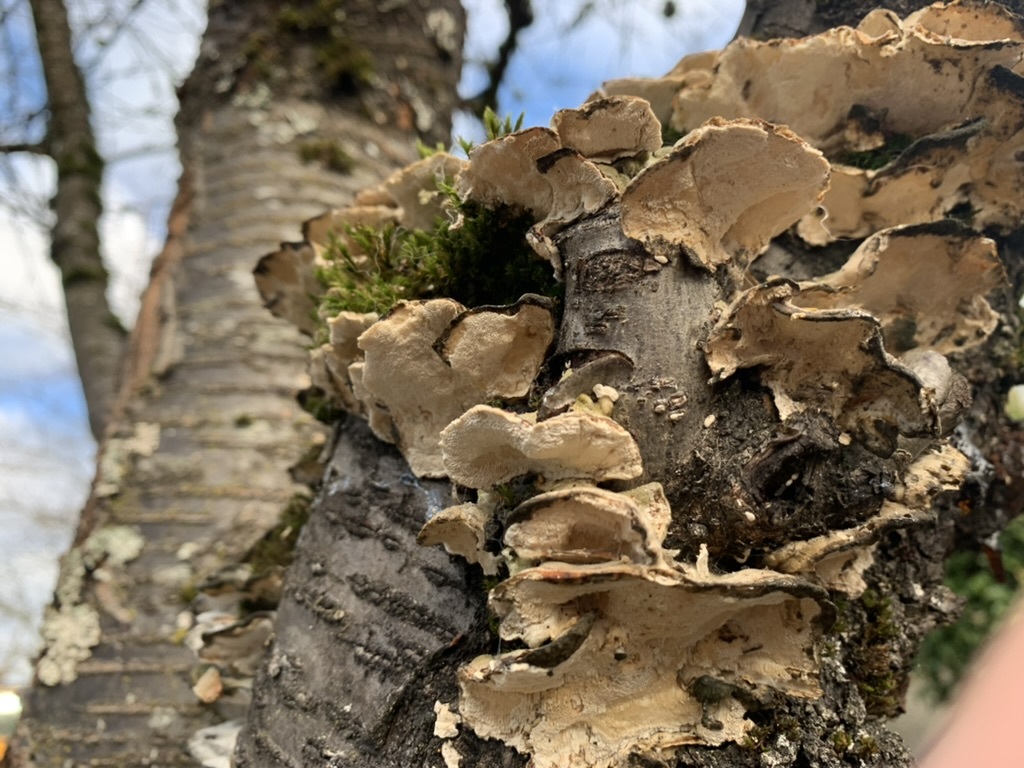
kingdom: Fungi
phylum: Basidiomycota
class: Agaricomycetes
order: Polyporales
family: Polyporaceae
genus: Trametes
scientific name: Trametes versicolor
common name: Turkeytail
